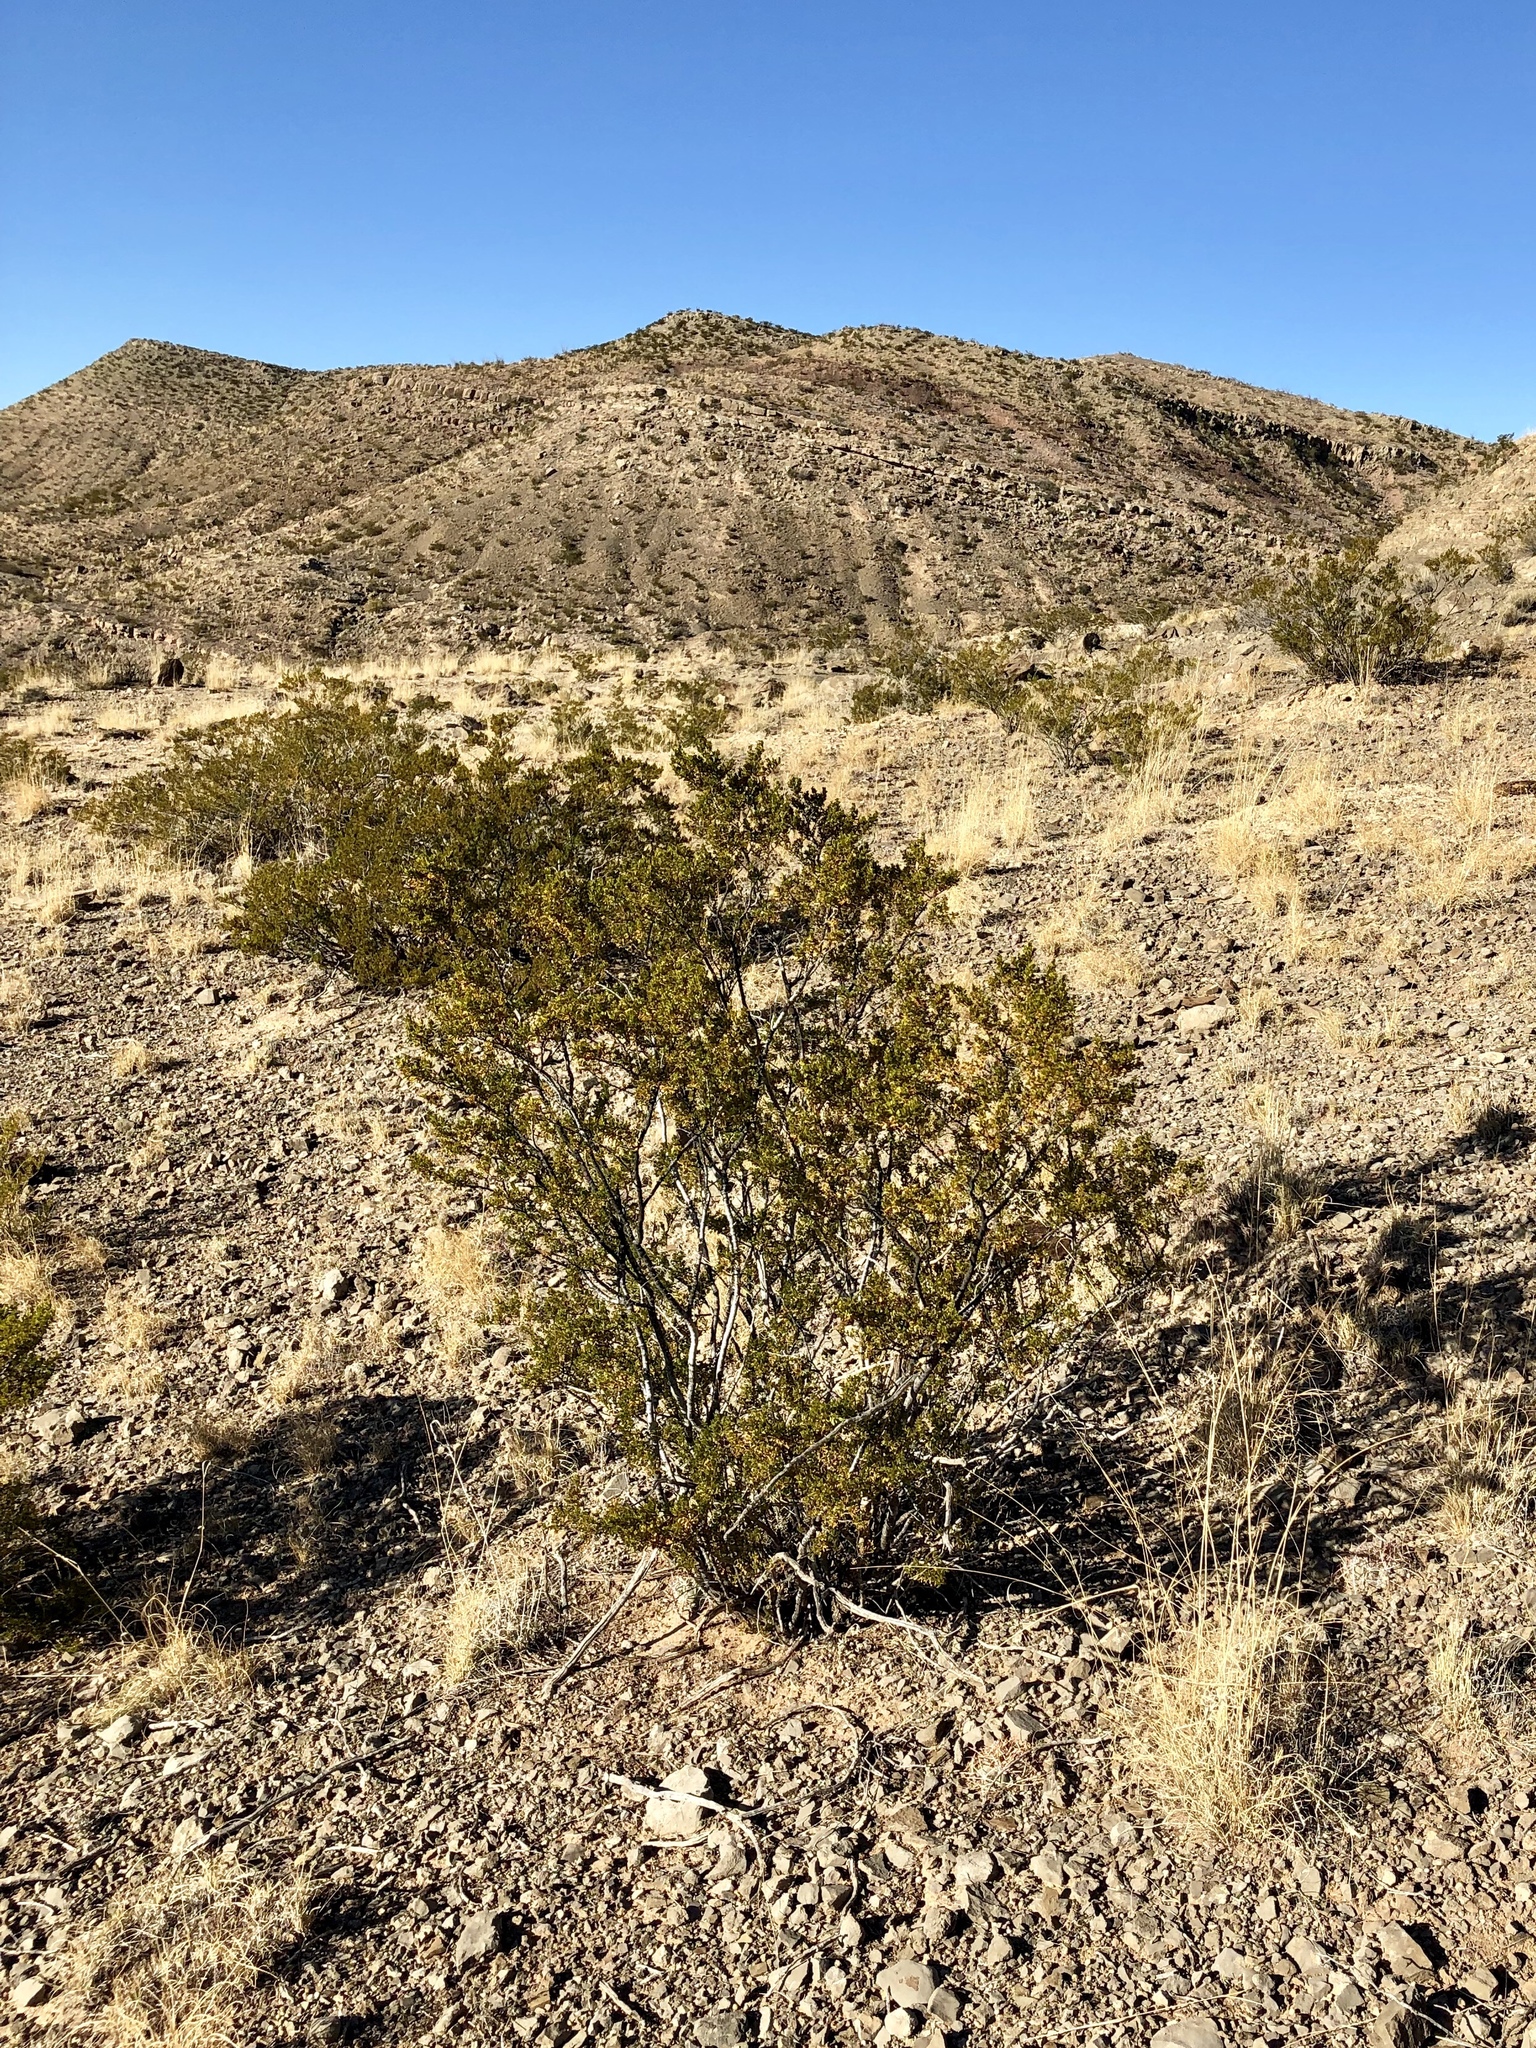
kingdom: Plantae
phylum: Tracheophyta
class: Magnoliopsida
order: Zygophyllales
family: Zygophyllaceae
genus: Larrea
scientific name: Larrea tridentata
